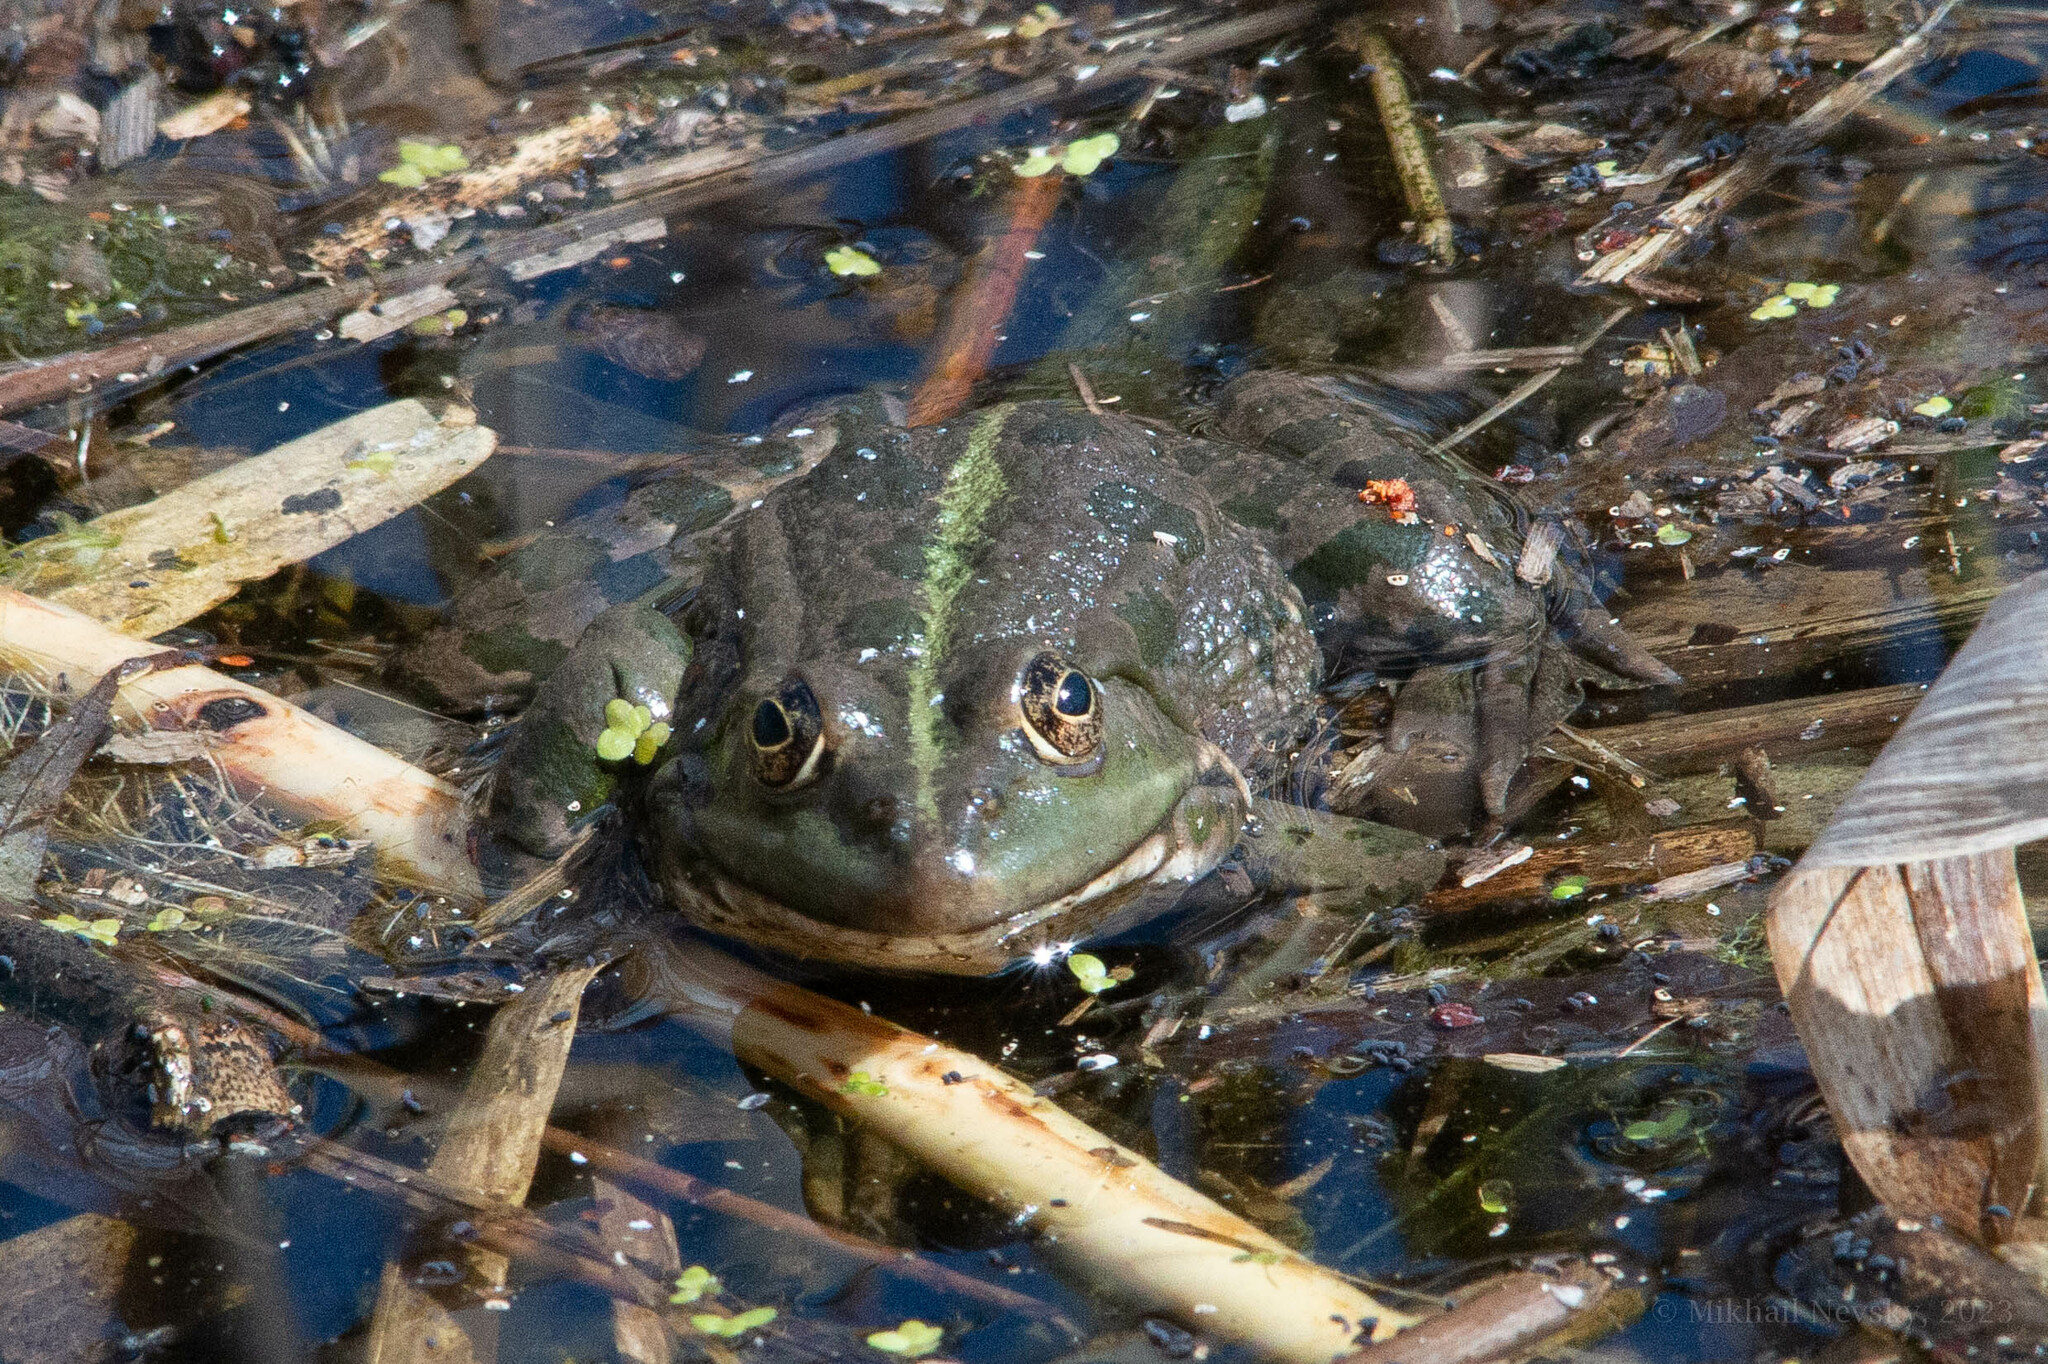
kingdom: Animalia
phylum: Chordata
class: Amphibia
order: Anura
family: Ranidae
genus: Pelophylax
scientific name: Pelophylax ridibundus
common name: Marsh frog
